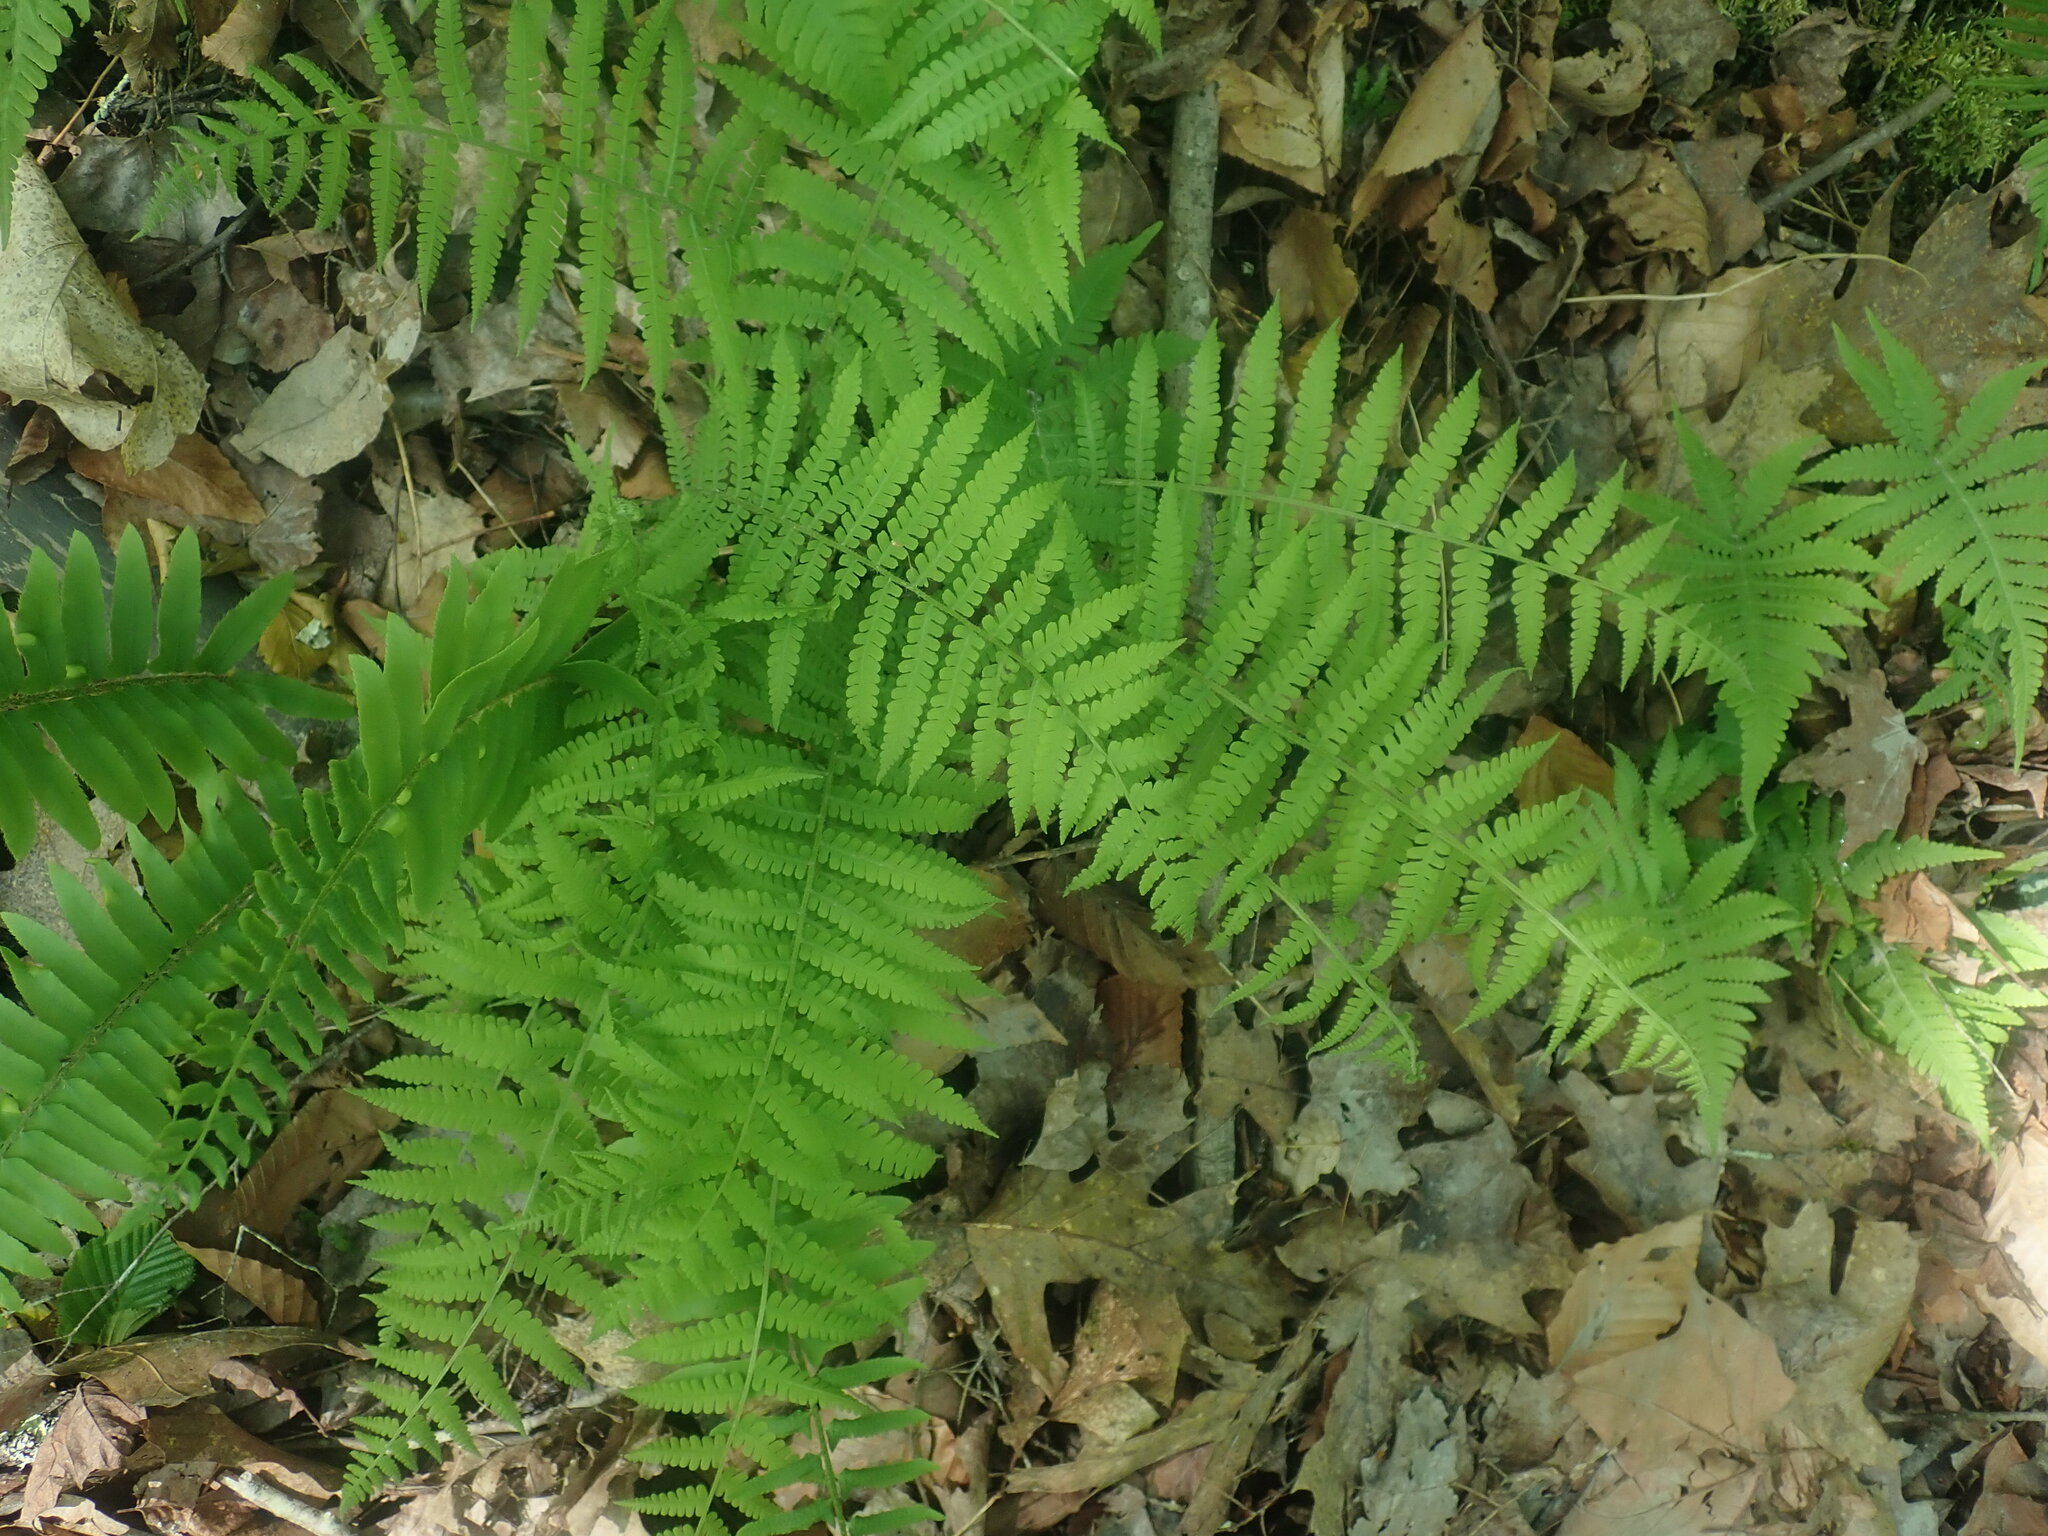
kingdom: Plantae
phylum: Tracheophyta
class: Polypodiopsida
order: Polypodiales
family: Thelypteridaceae
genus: Amauropelta
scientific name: Amauropelta noveboracensis
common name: New york fern
